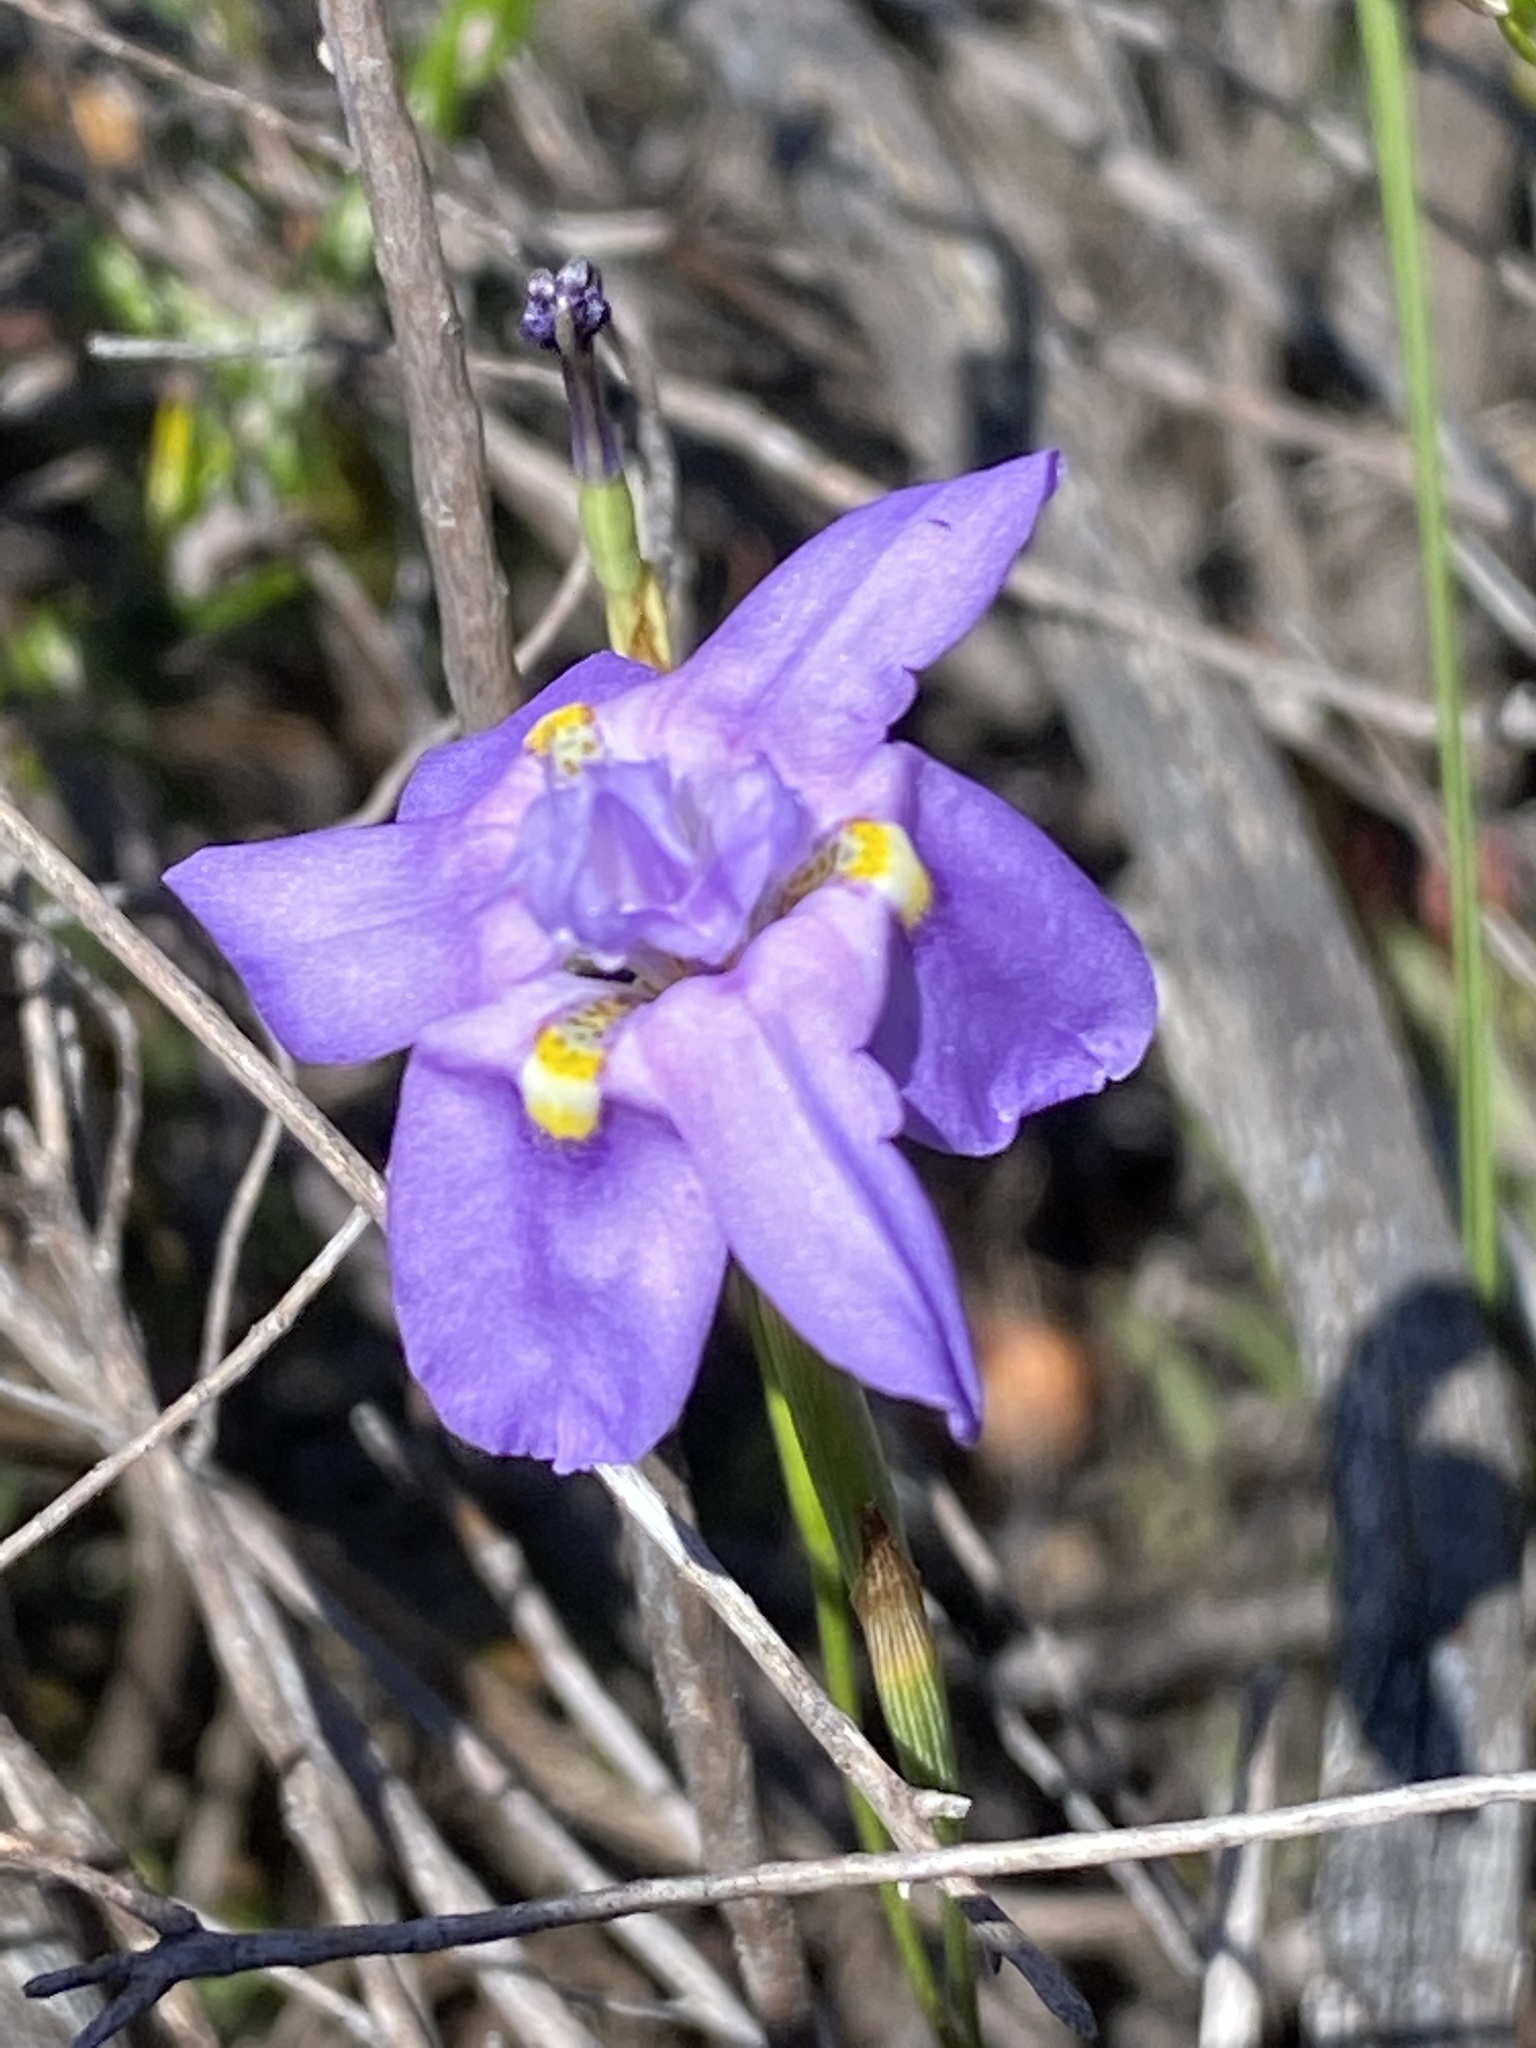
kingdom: Plantae
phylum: Tracheophyta
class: Liliopsida
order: Asparagales
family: Iridaceae
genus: Moraea
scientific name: Moraea bipartita
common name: Blue tulp
